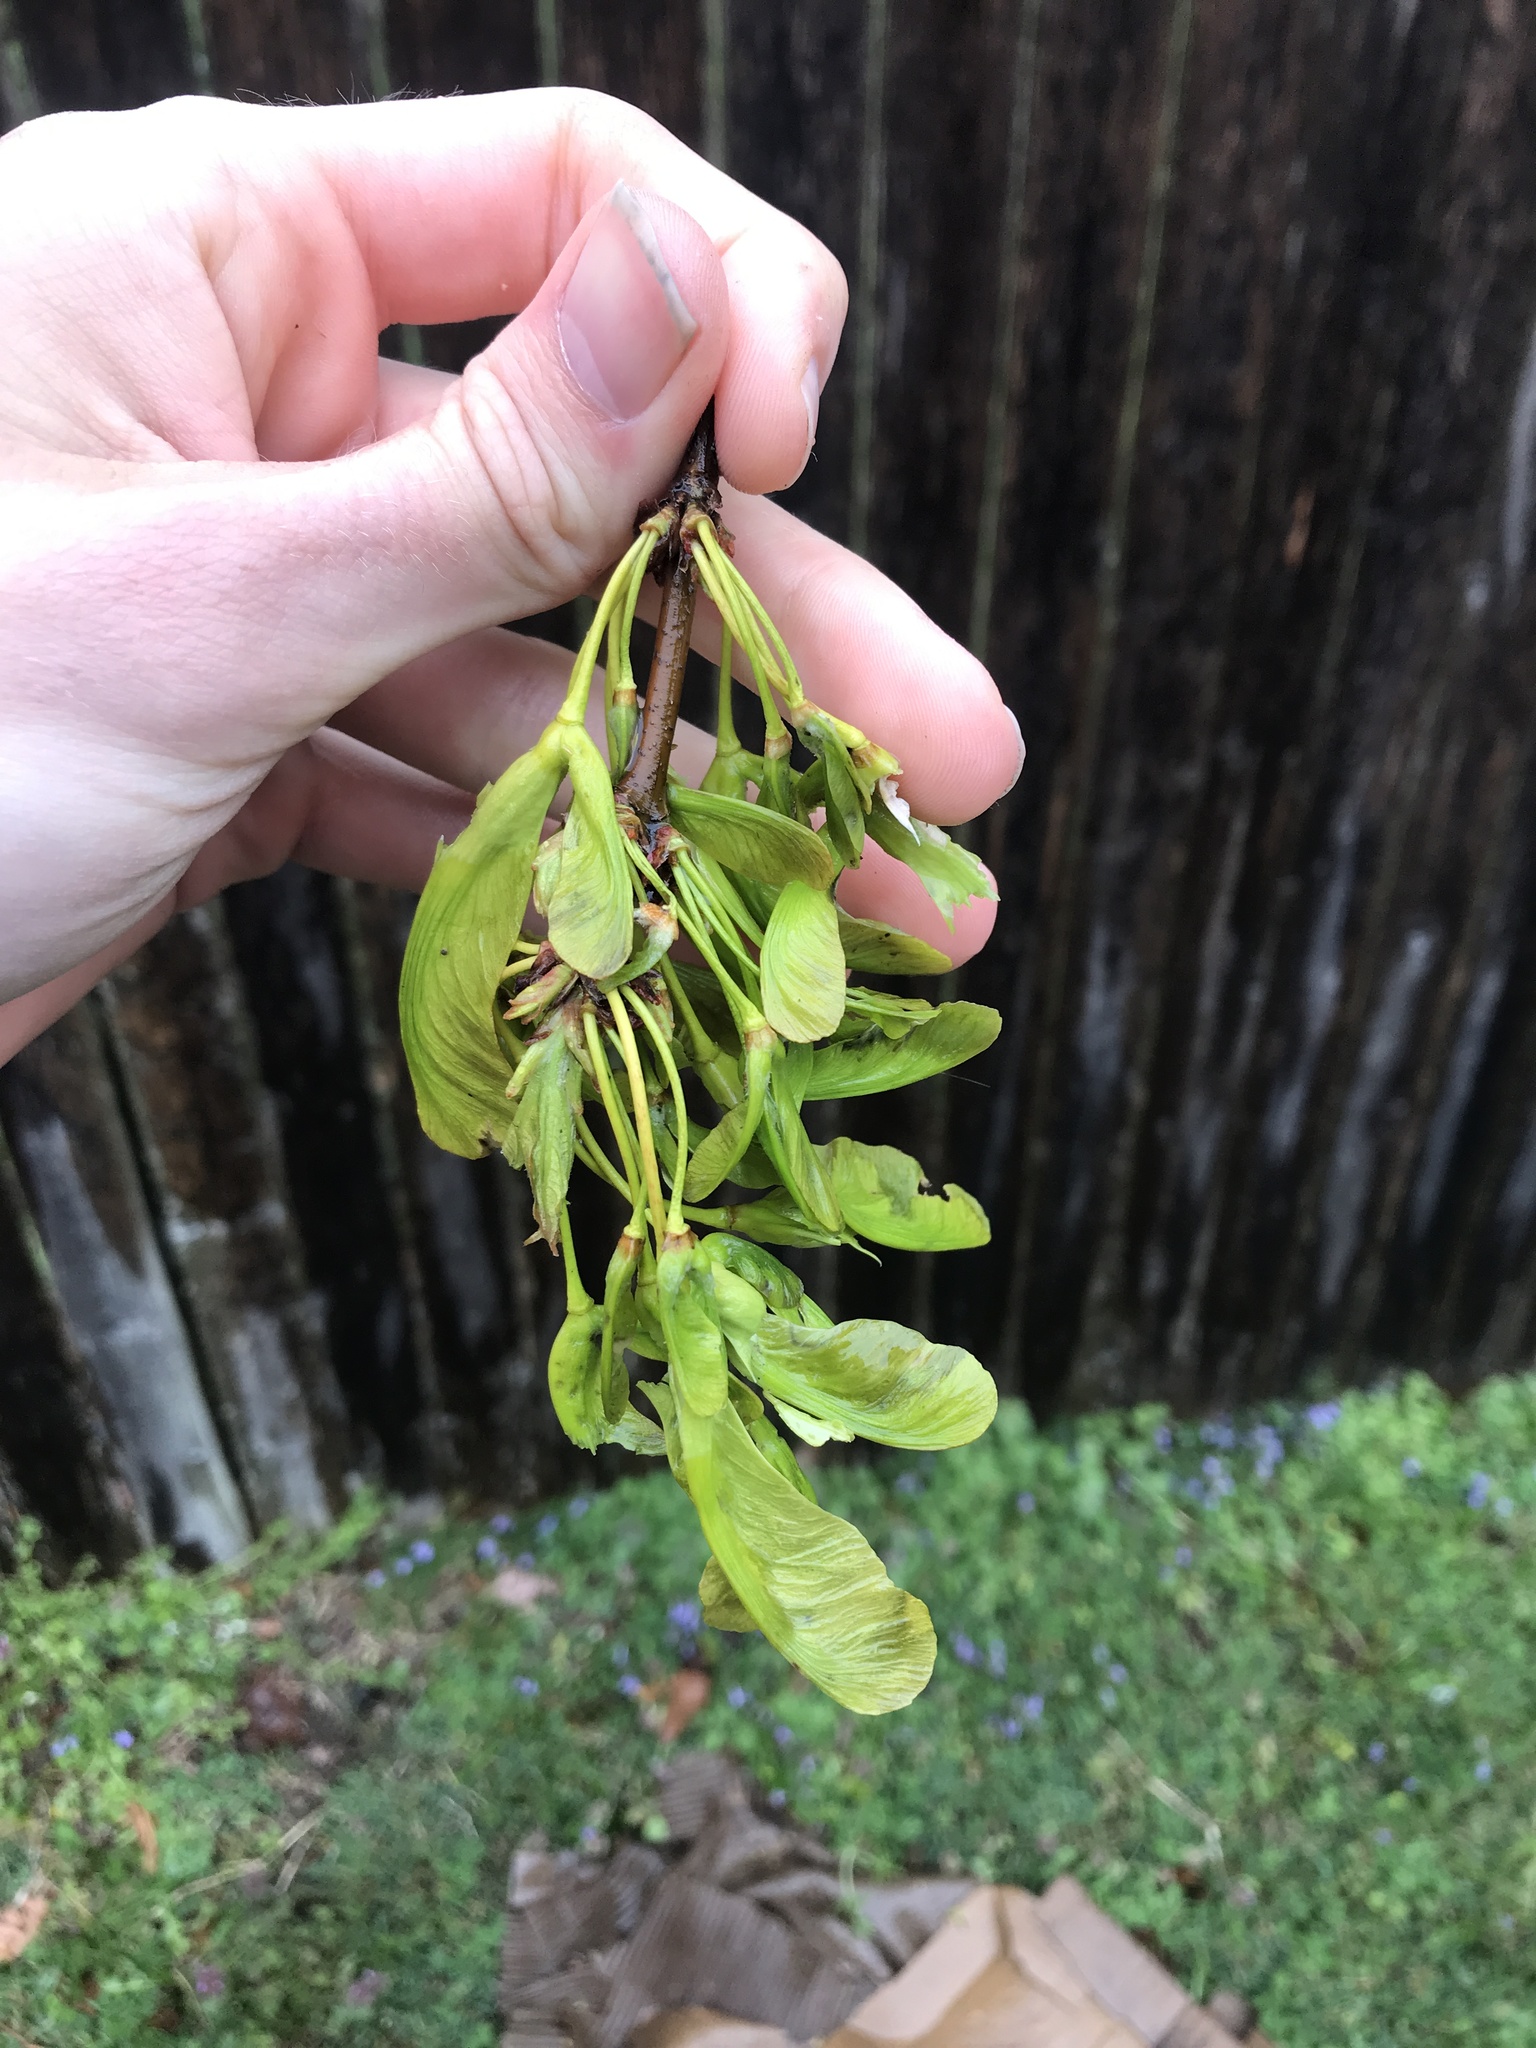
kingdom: Plantae
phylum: Tracheophyta
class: Magnoliopsida
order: Sapindales
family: Sapindaceae
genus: Acer
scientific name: Acer saccharinum
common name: Silver maple
